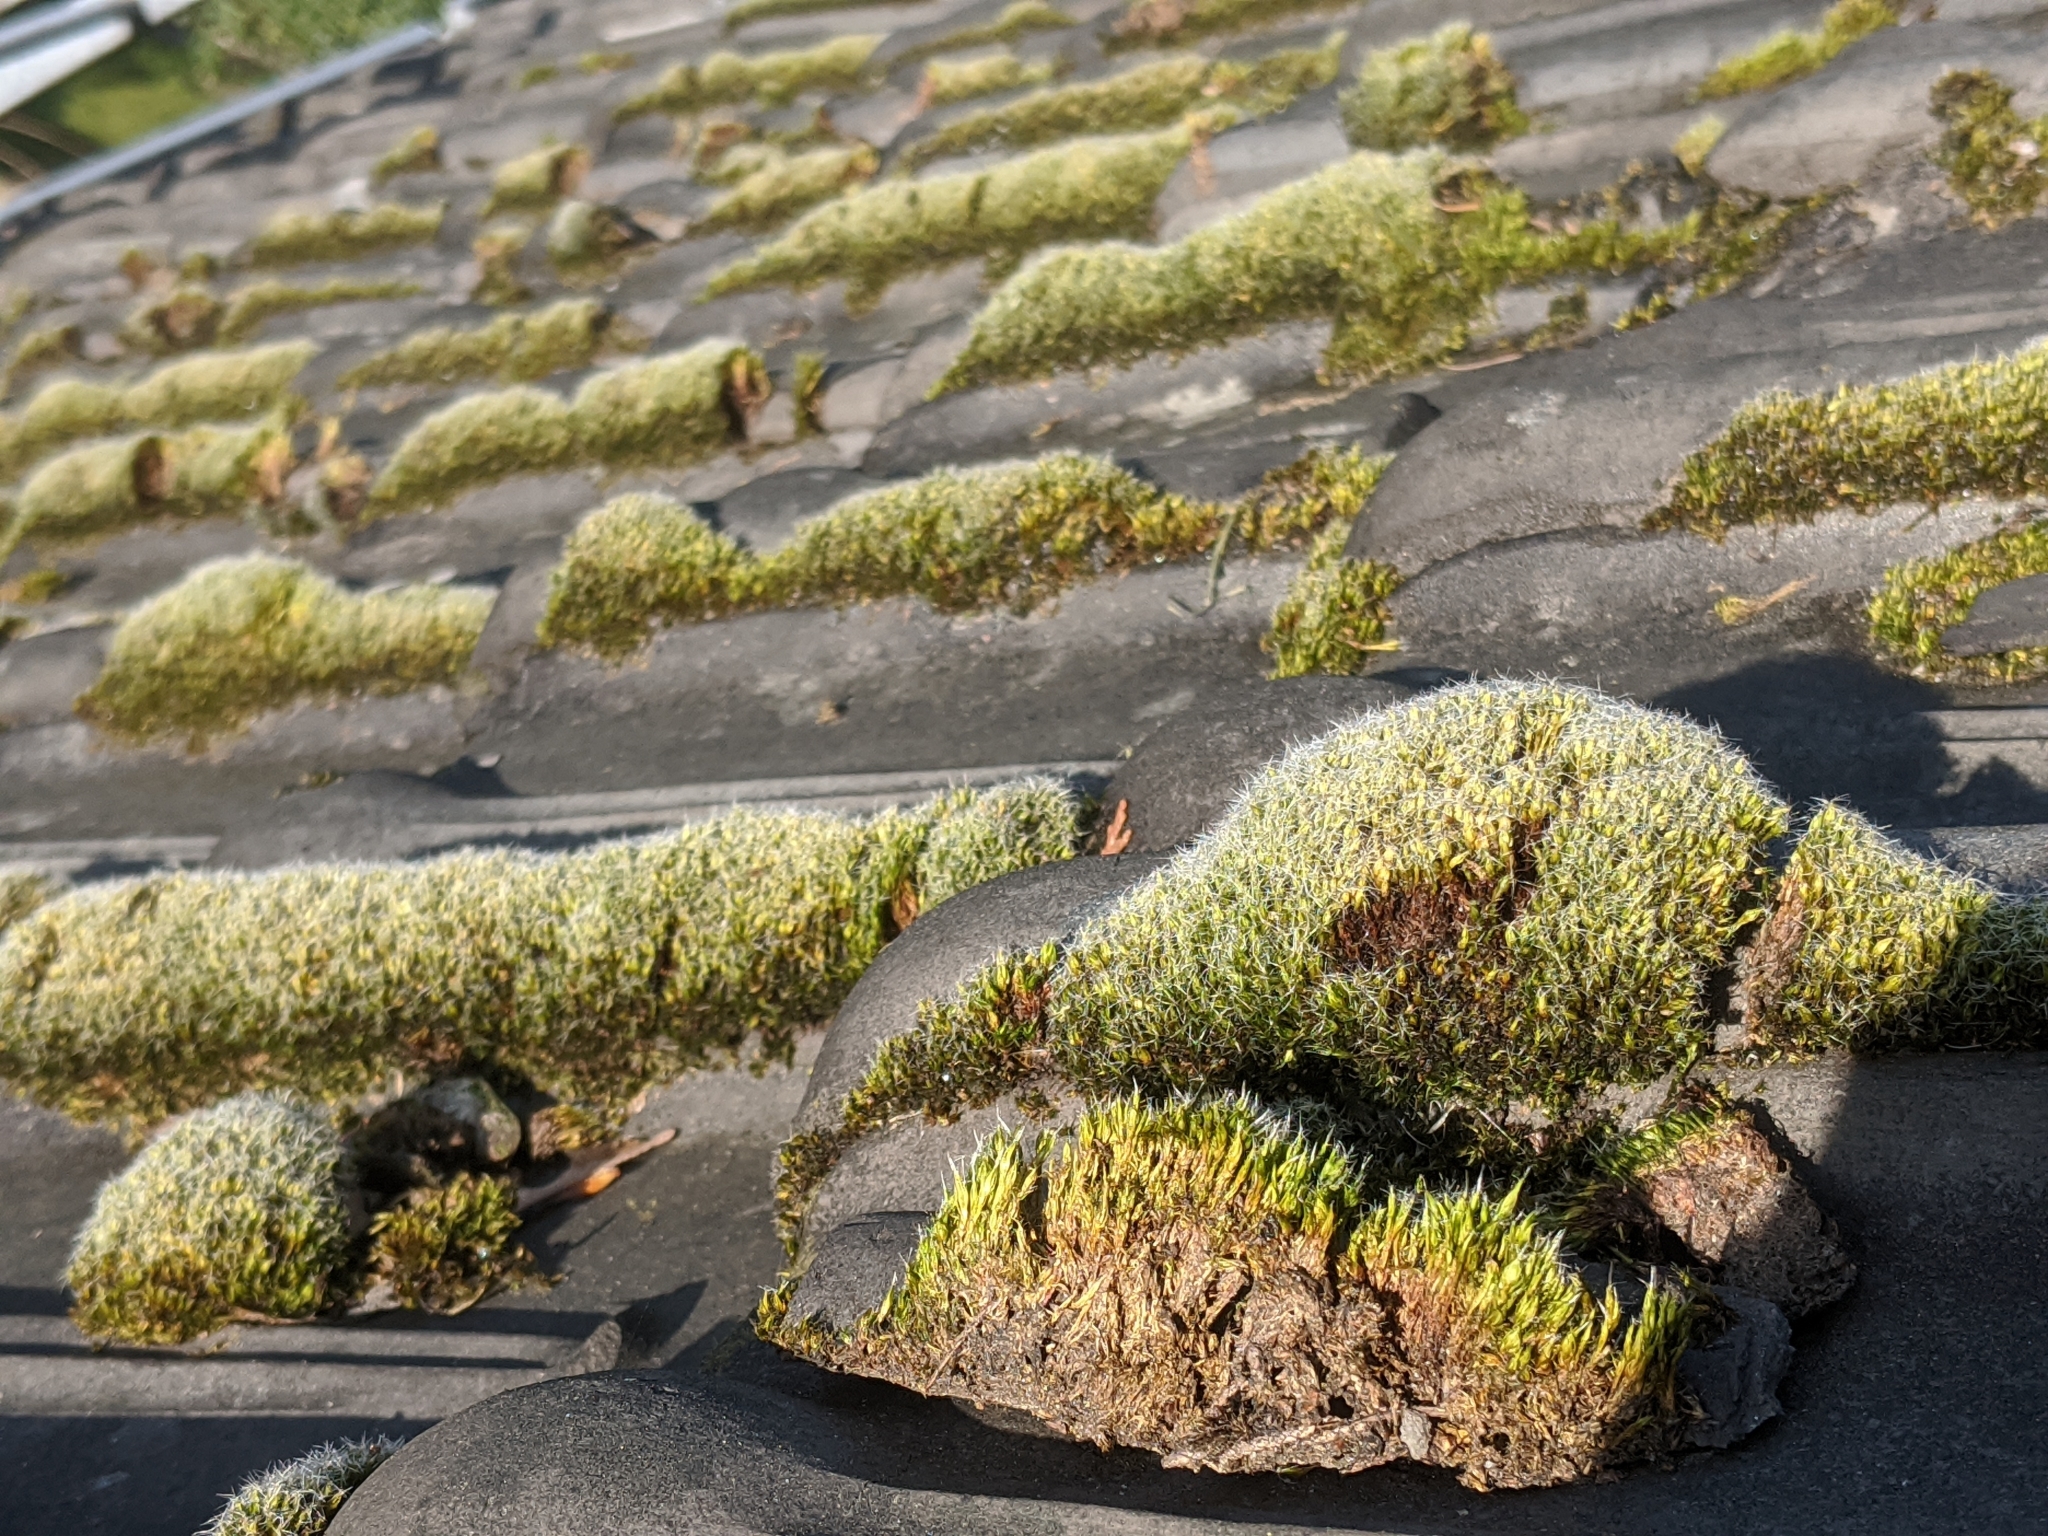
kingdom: Plantae
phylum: Bryophyta
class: Bryopsida
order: Dicranales
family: Leucobryaceae
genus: Campylopus
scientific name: Campylopus introflexus
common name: Heath star moss
